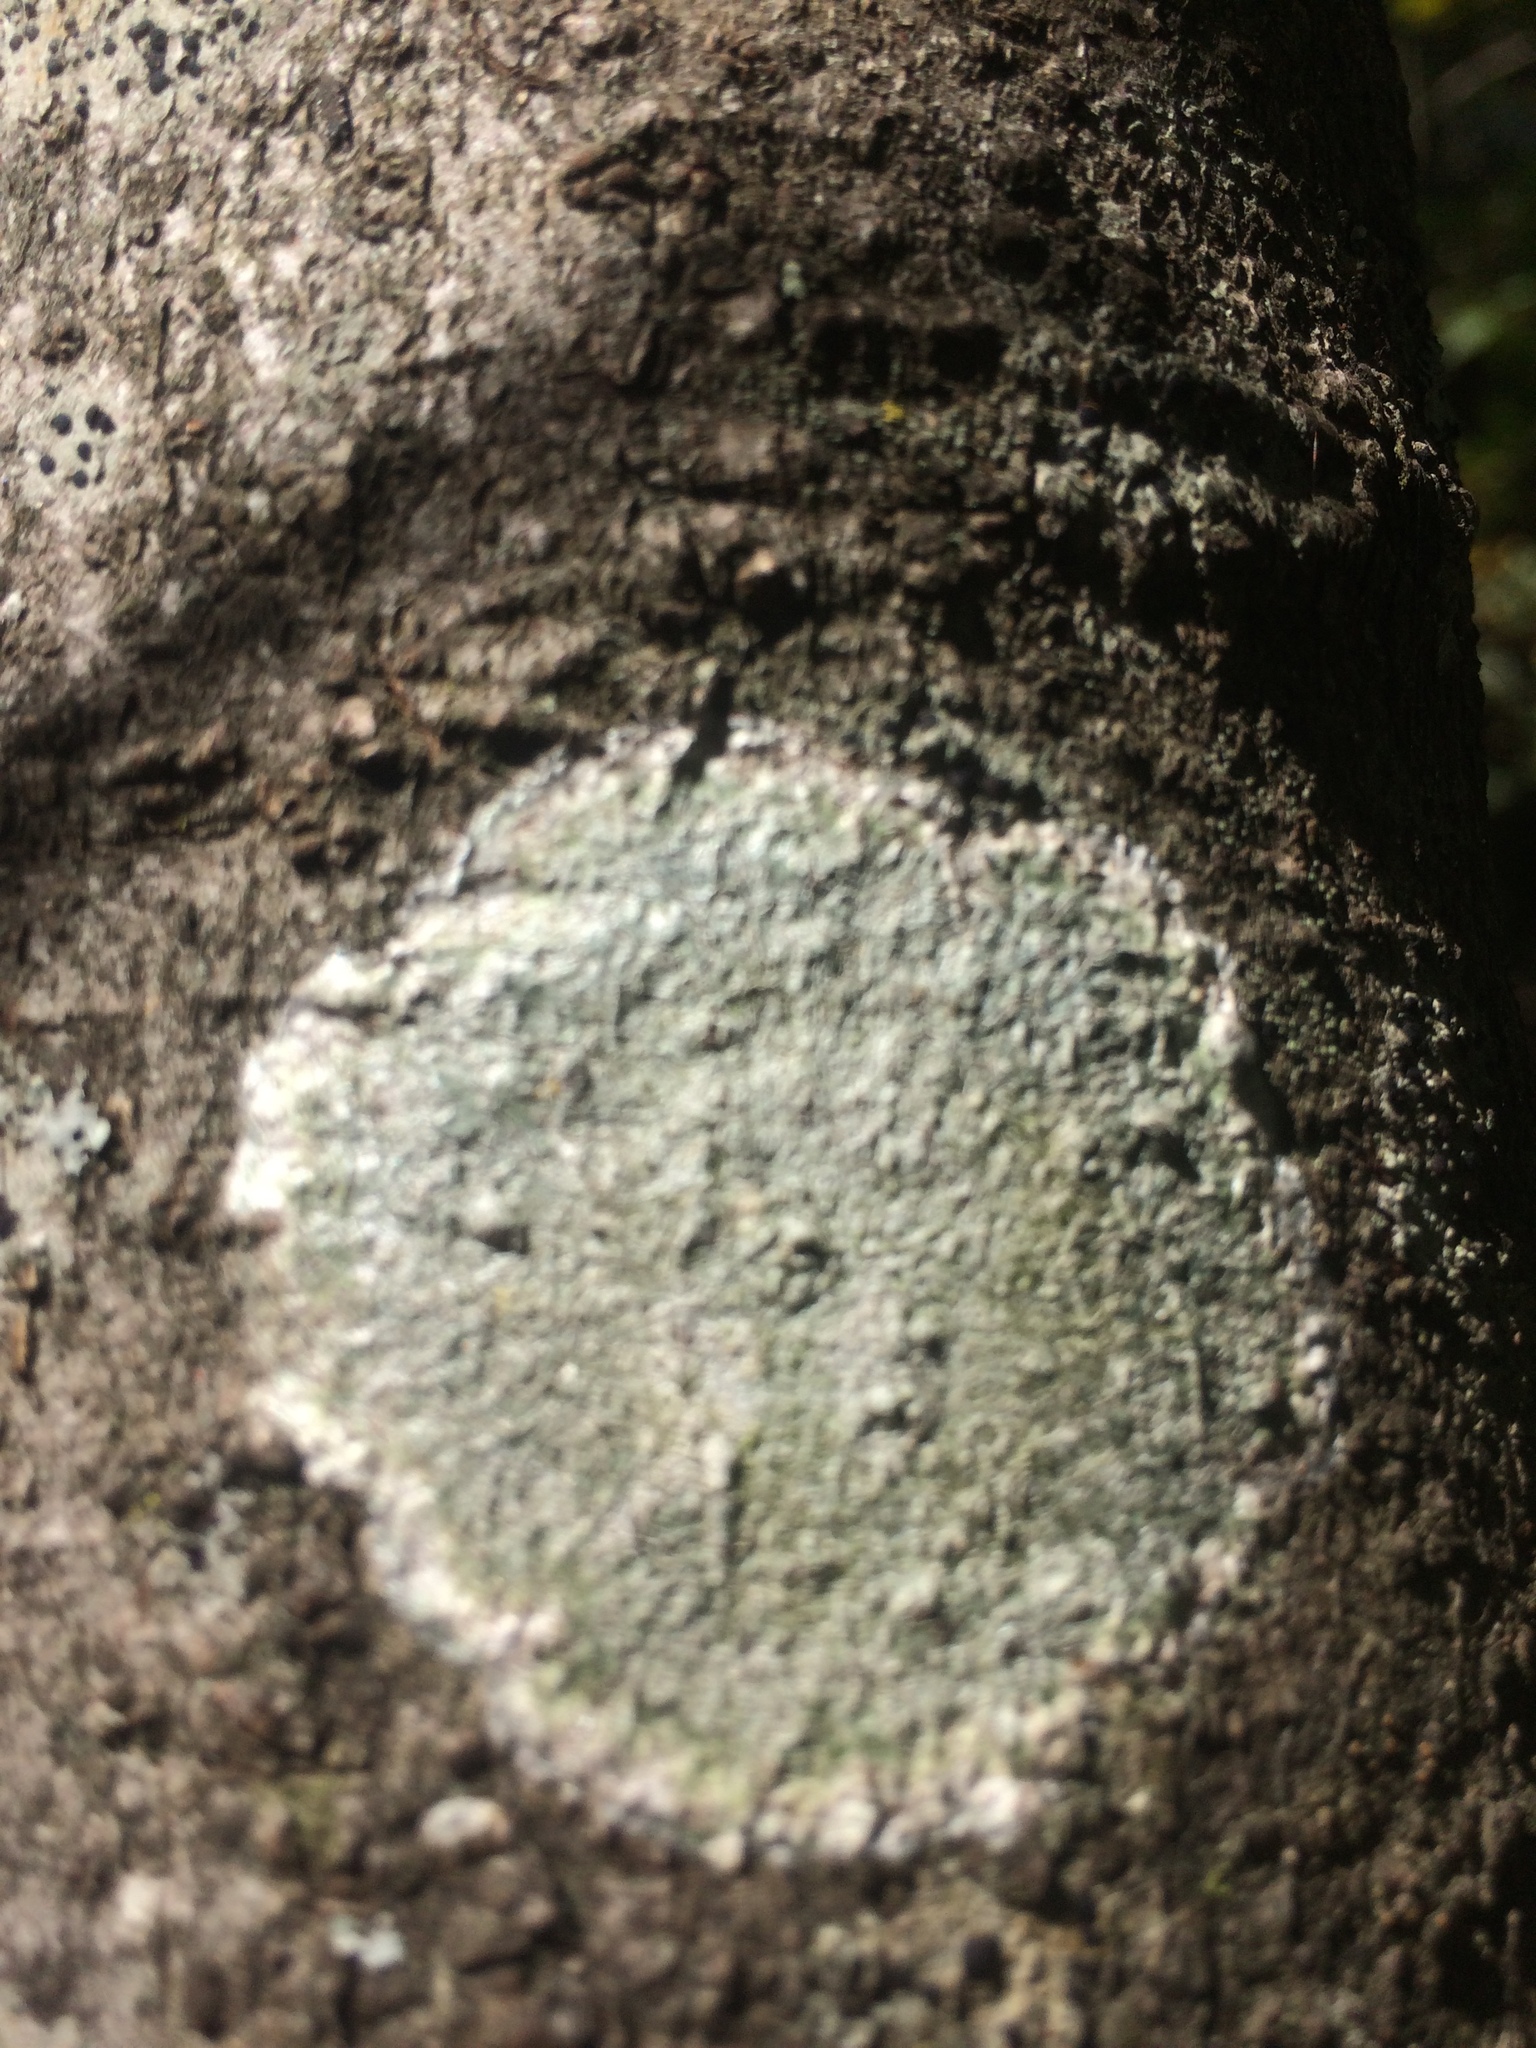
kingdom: Fungi
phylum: Ascomycota
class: Lecanoromycetes
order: Ostropales
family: Phlyctidaceae
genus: Phlyctis
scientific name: Phlyctis argena
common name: Whitewash lichen
